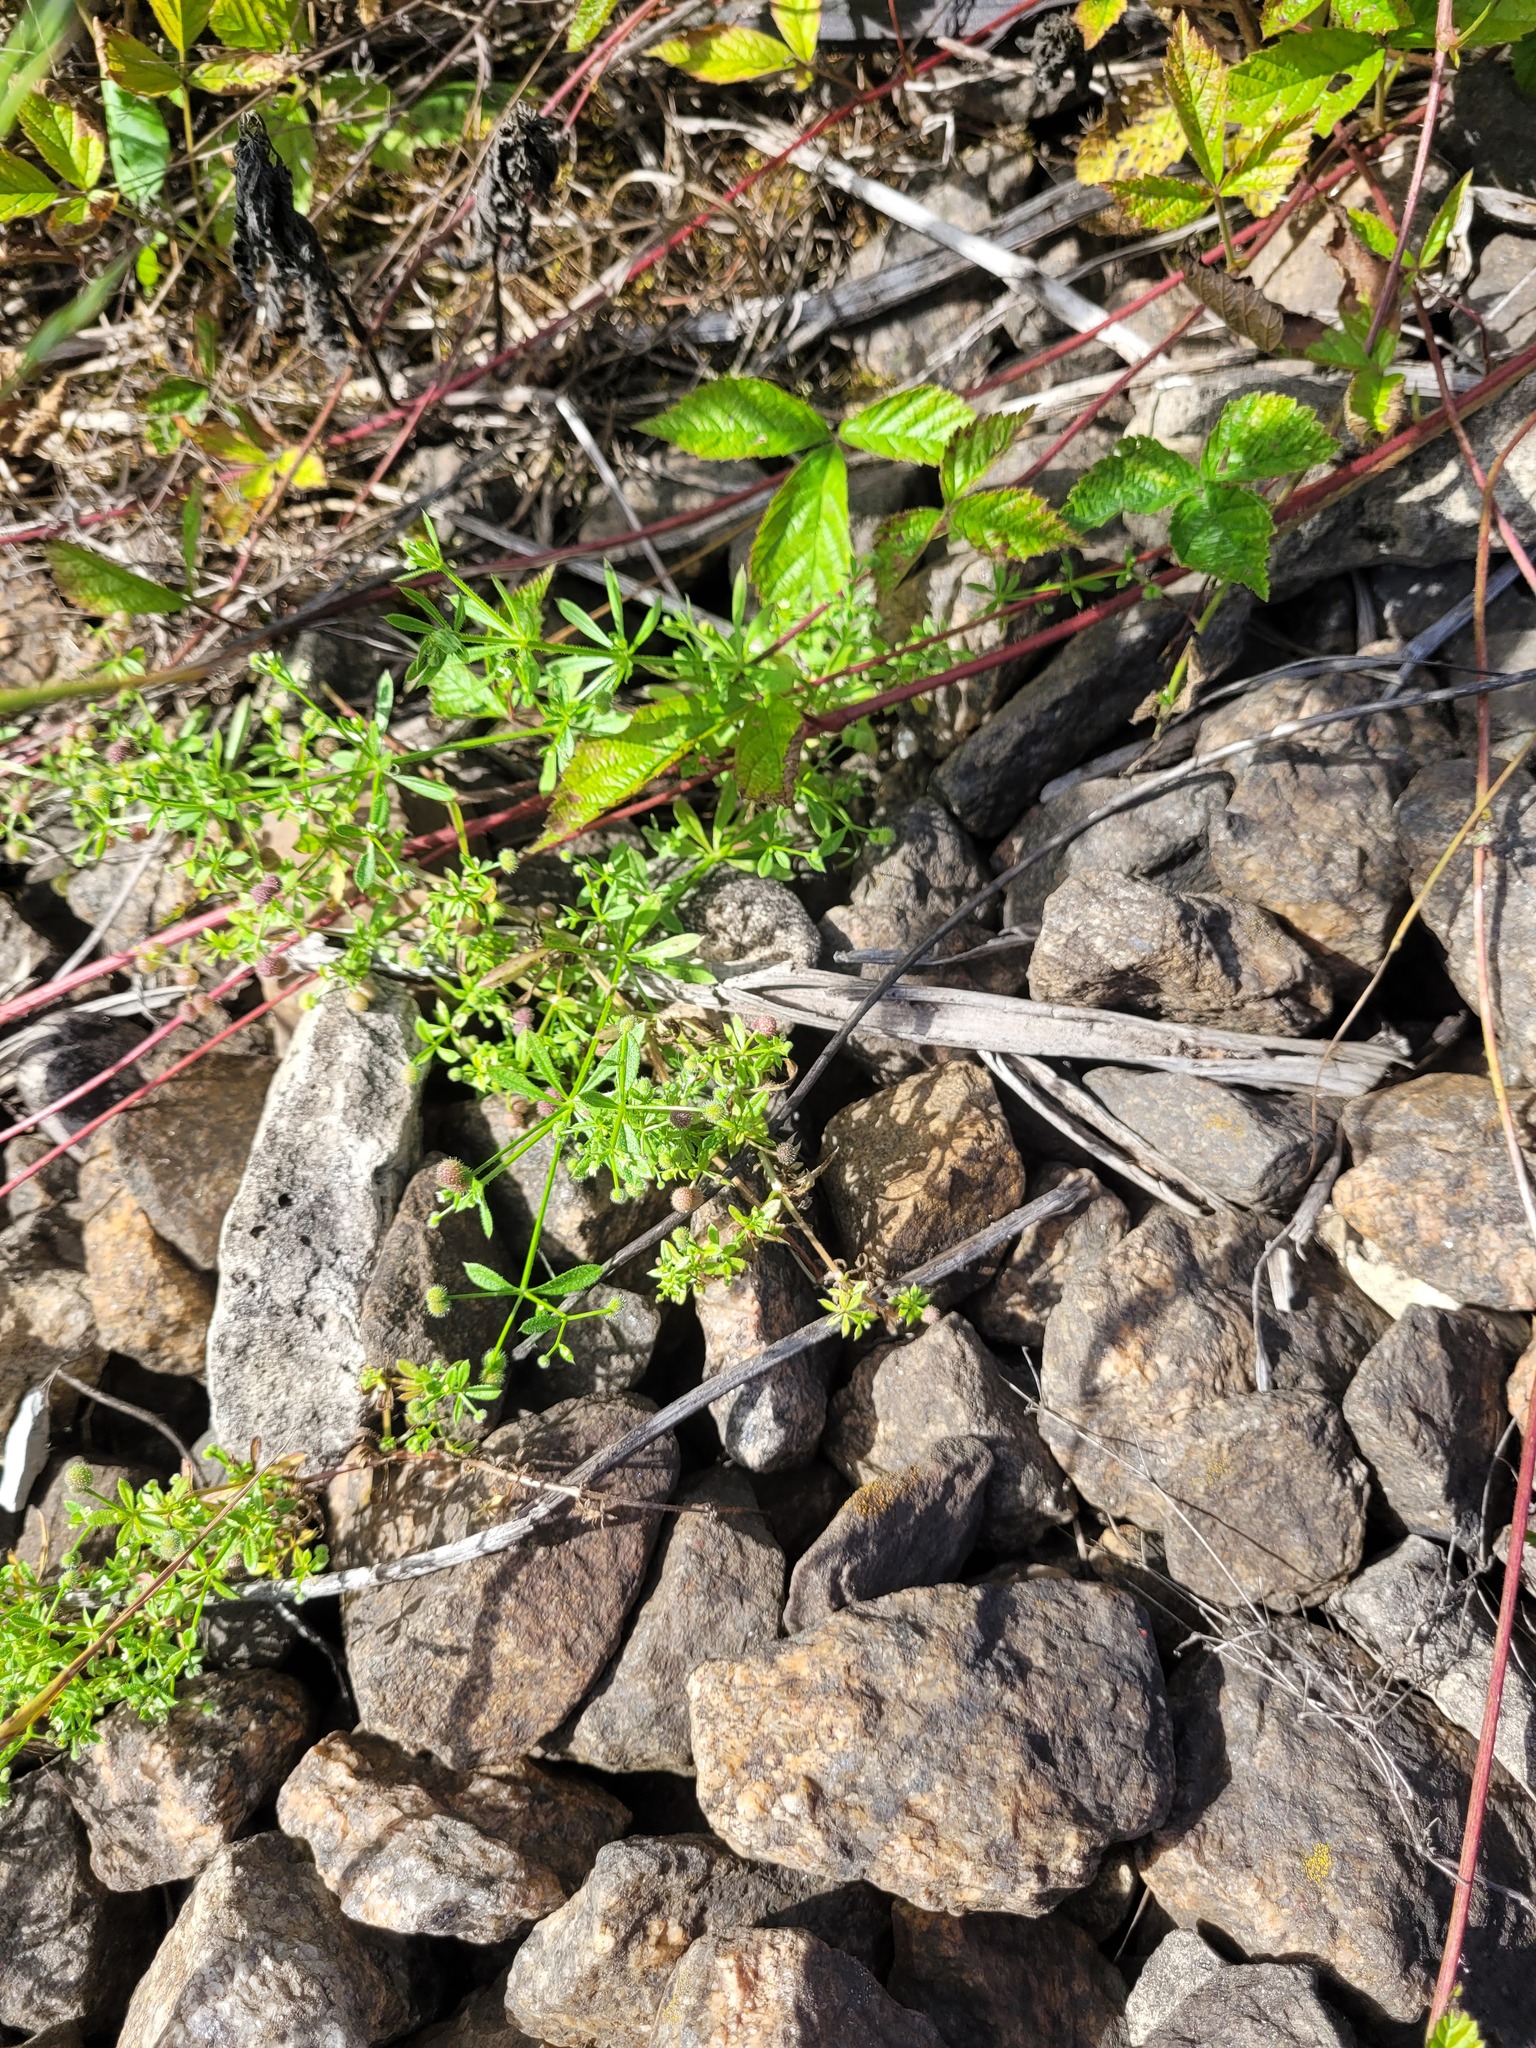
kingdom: Plantae
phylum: Tracheophyta
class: Magnoliopsida
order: Gentianales
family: Rubiaceae
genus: Galium
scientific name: Galium aparine
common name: Cleavers
